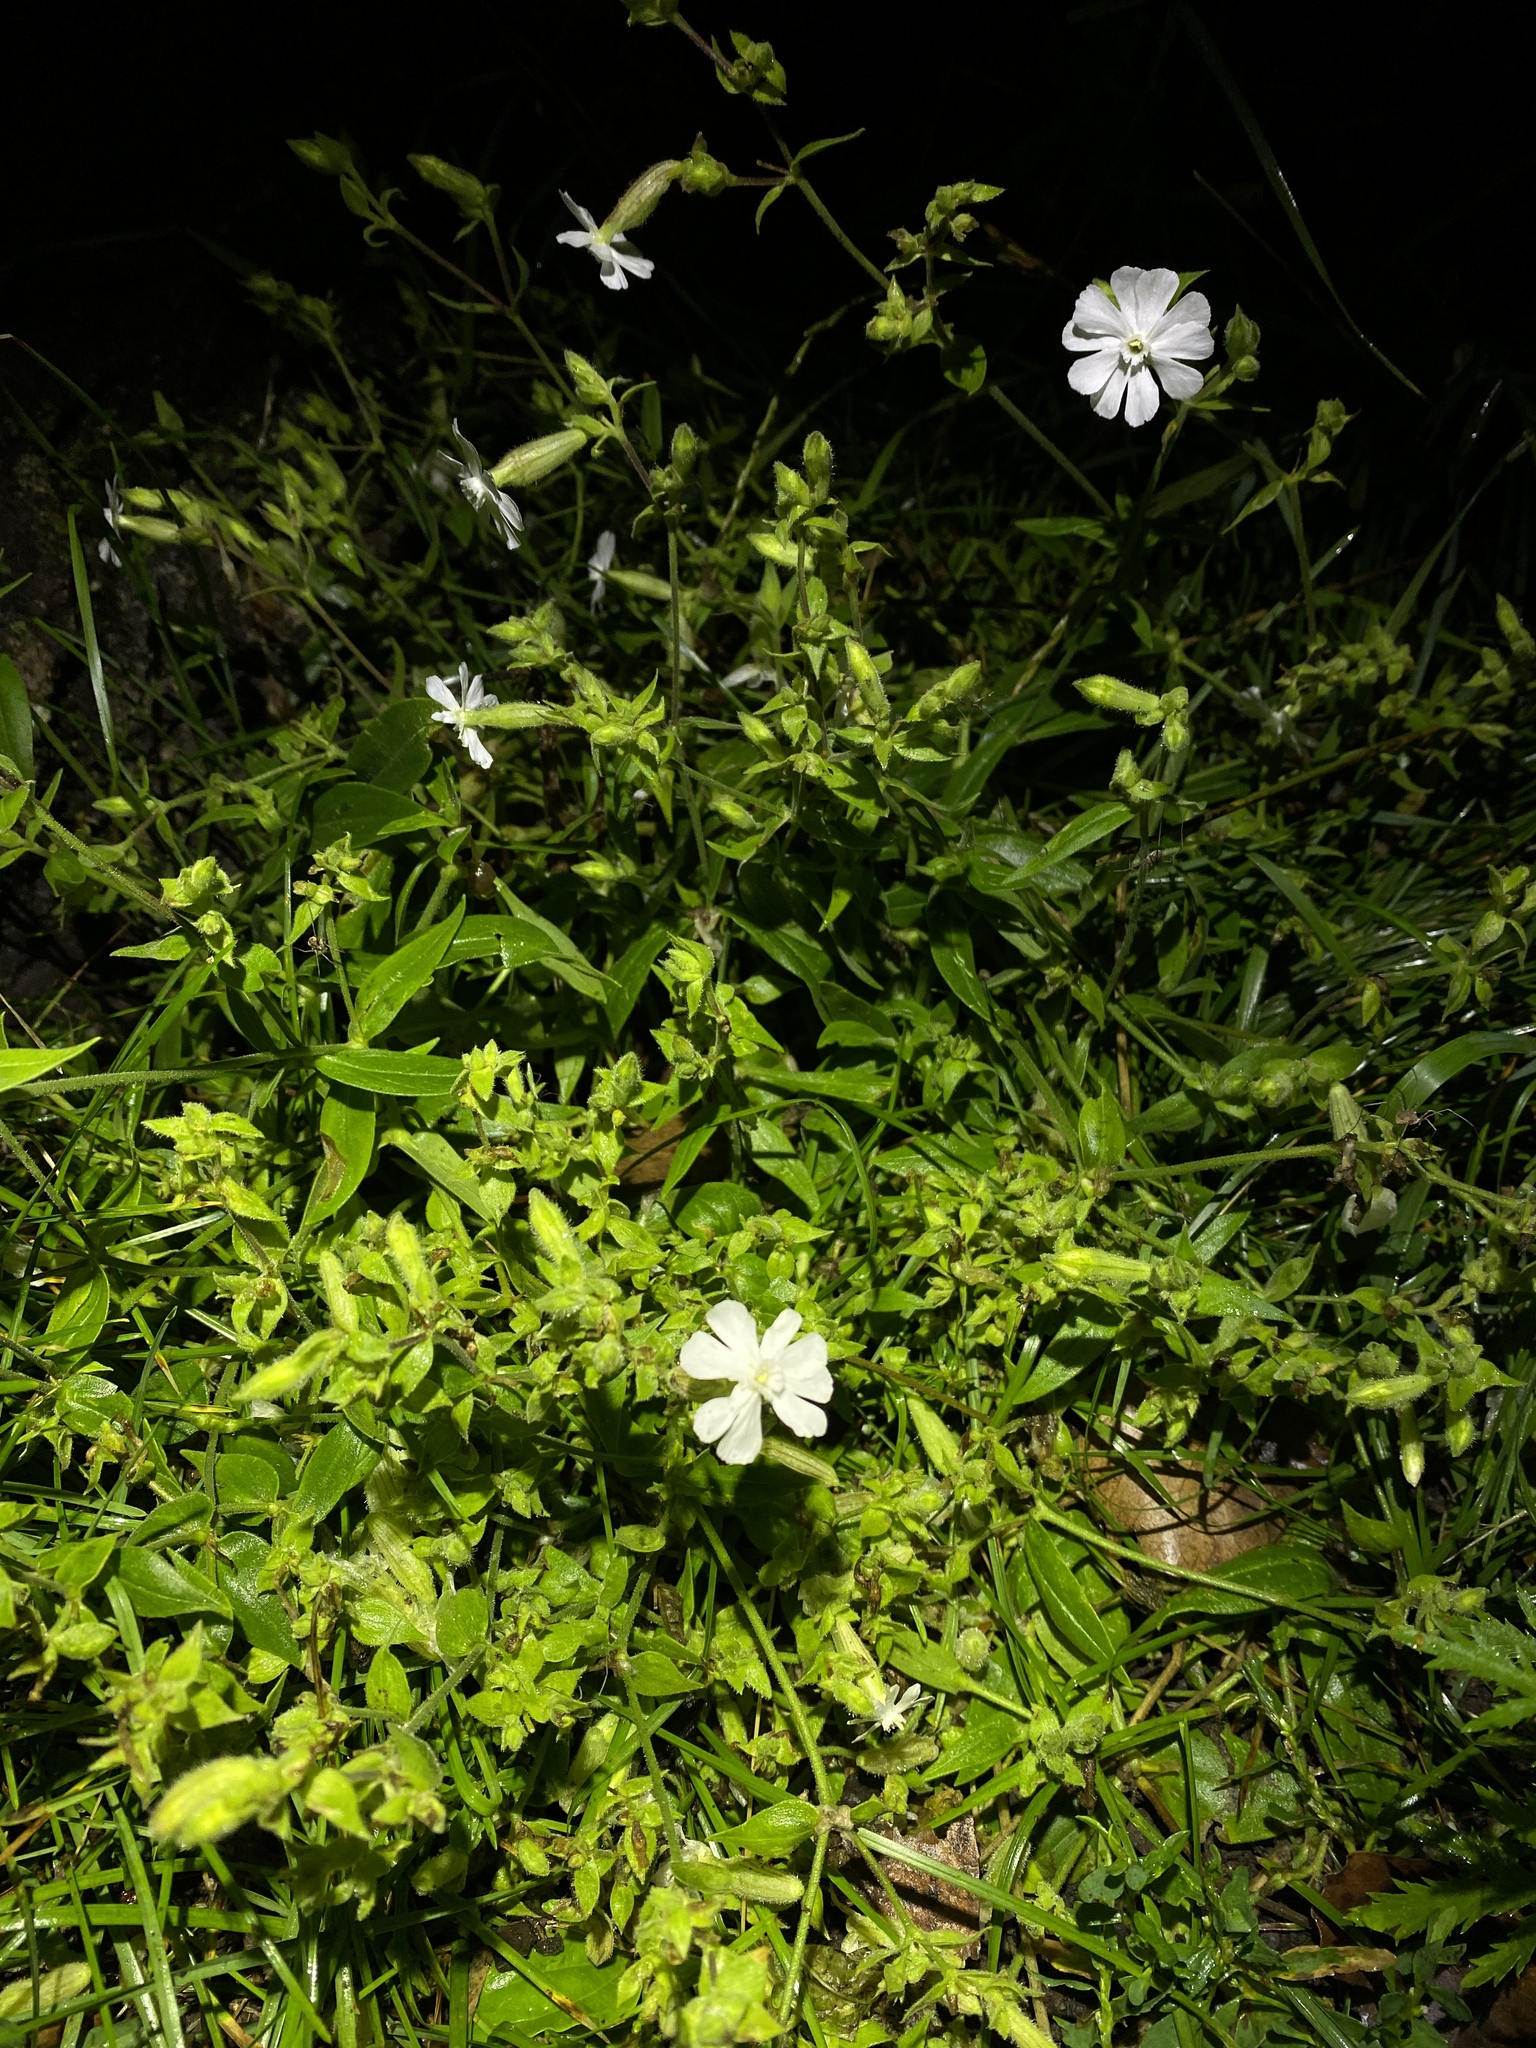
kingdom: Plantae
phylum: Tracheophyta
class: Magnoliopsida
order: Caryophyllales
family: Caryophyllaceae
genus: Silene
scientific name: Silene latifolia
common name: White campion
